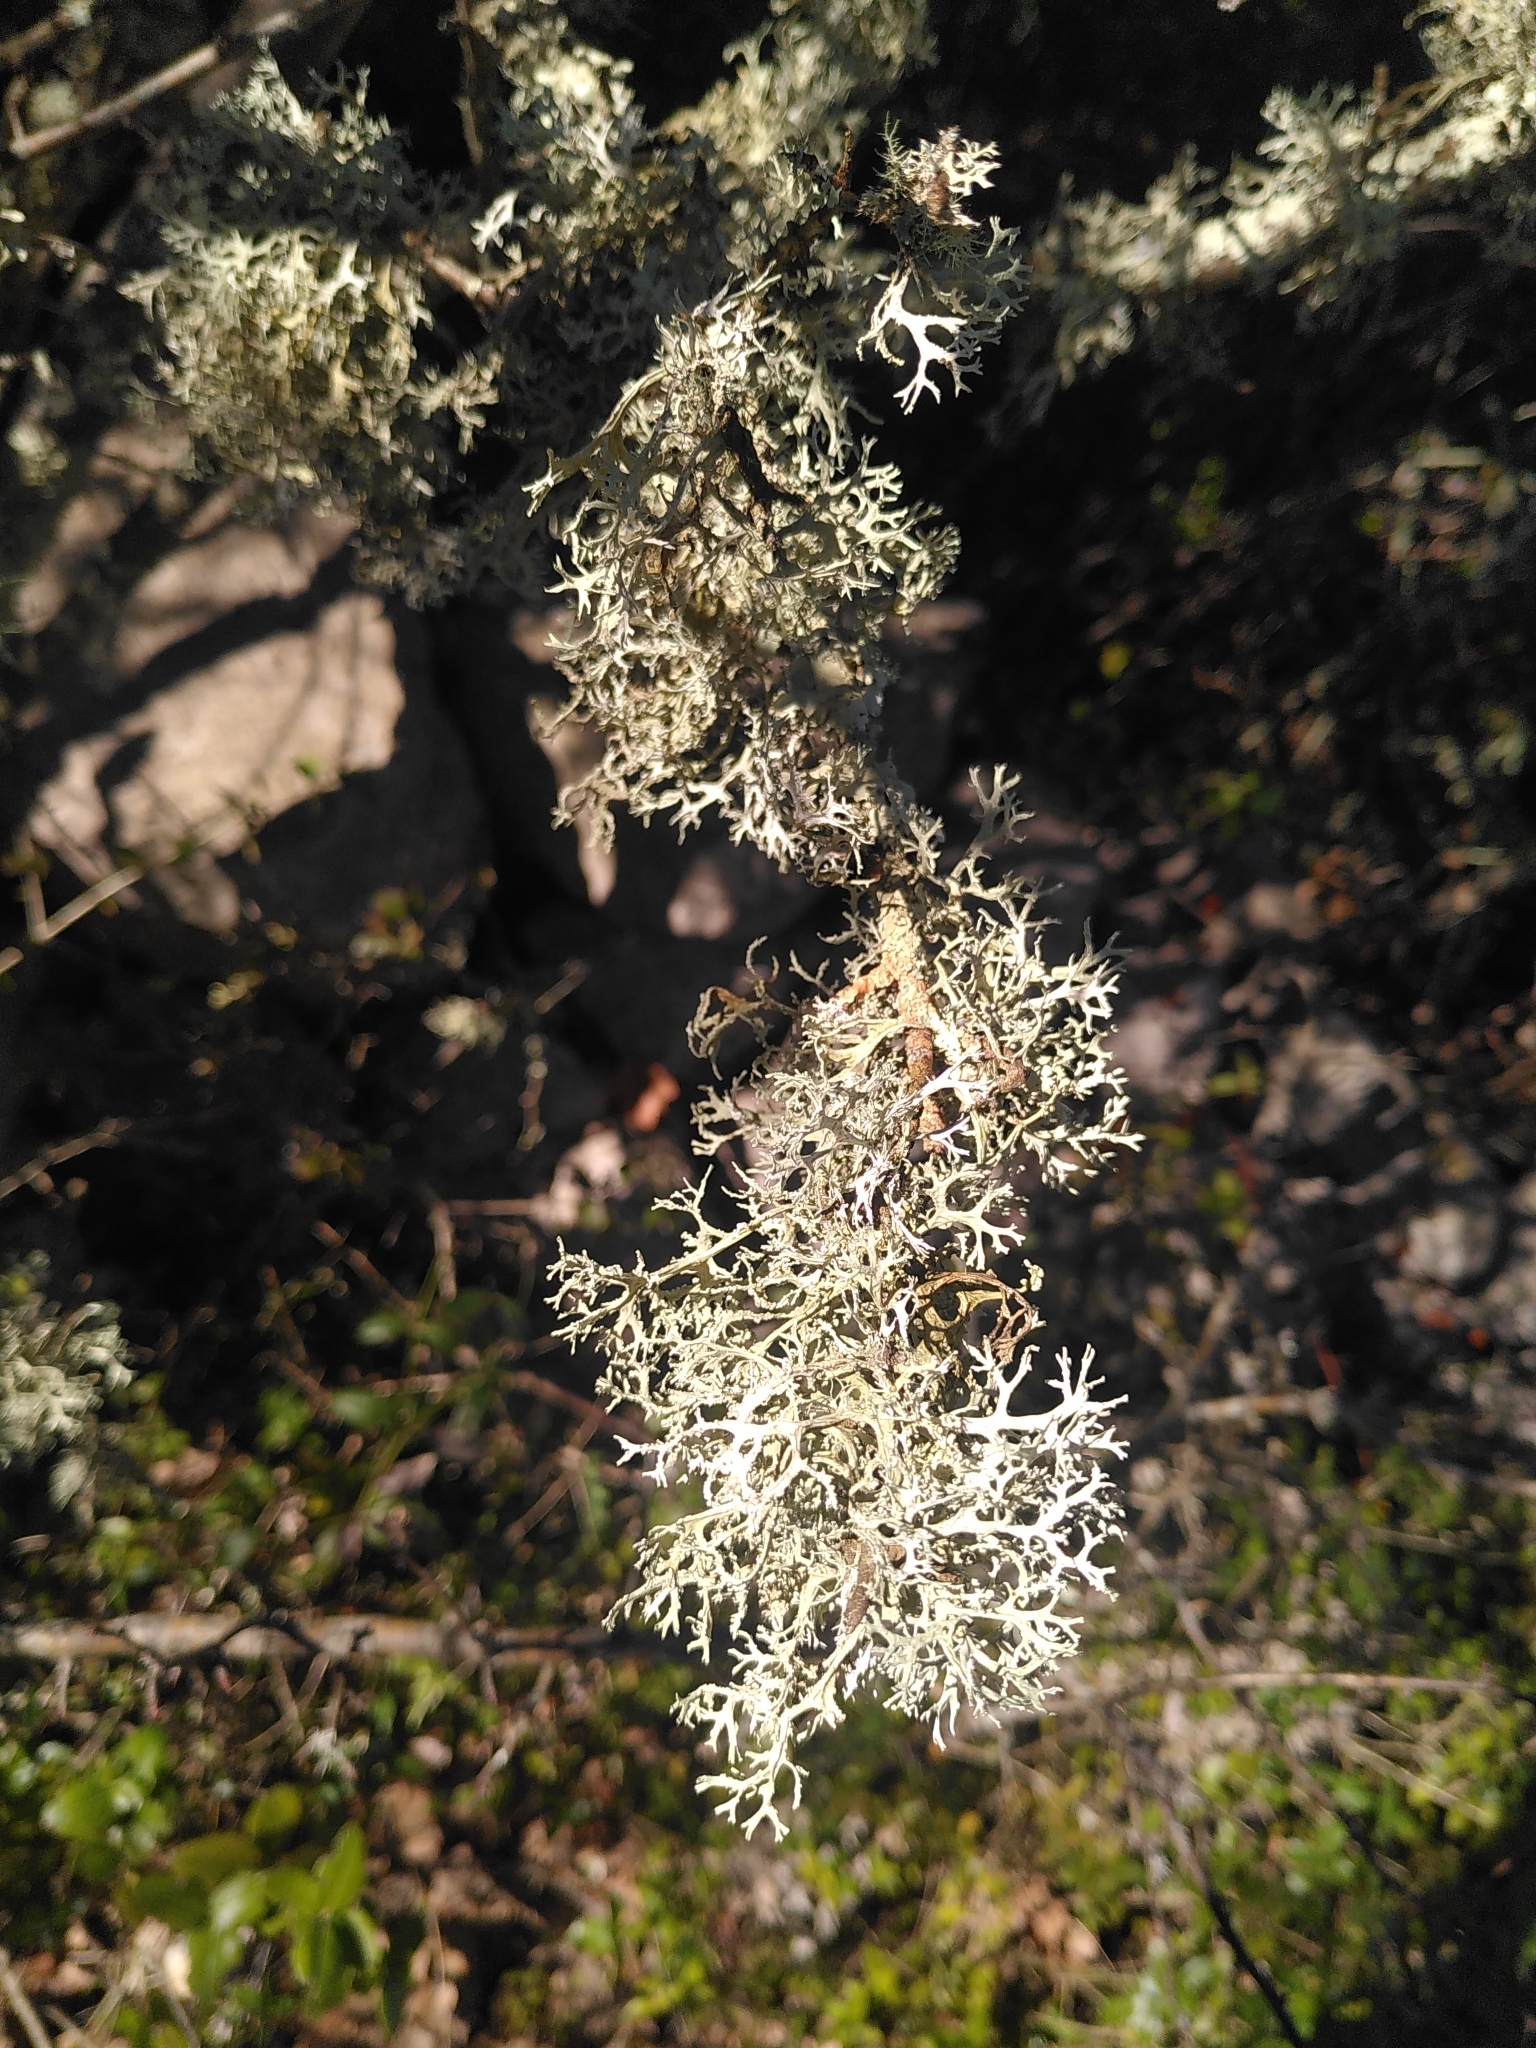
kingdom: Fungi
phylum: Ascomycota
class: Lecanoromycetes
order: Lecanorales
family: Parmeliaceae
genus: Evernia
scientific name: Evernia prunastri
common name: Oak moss
